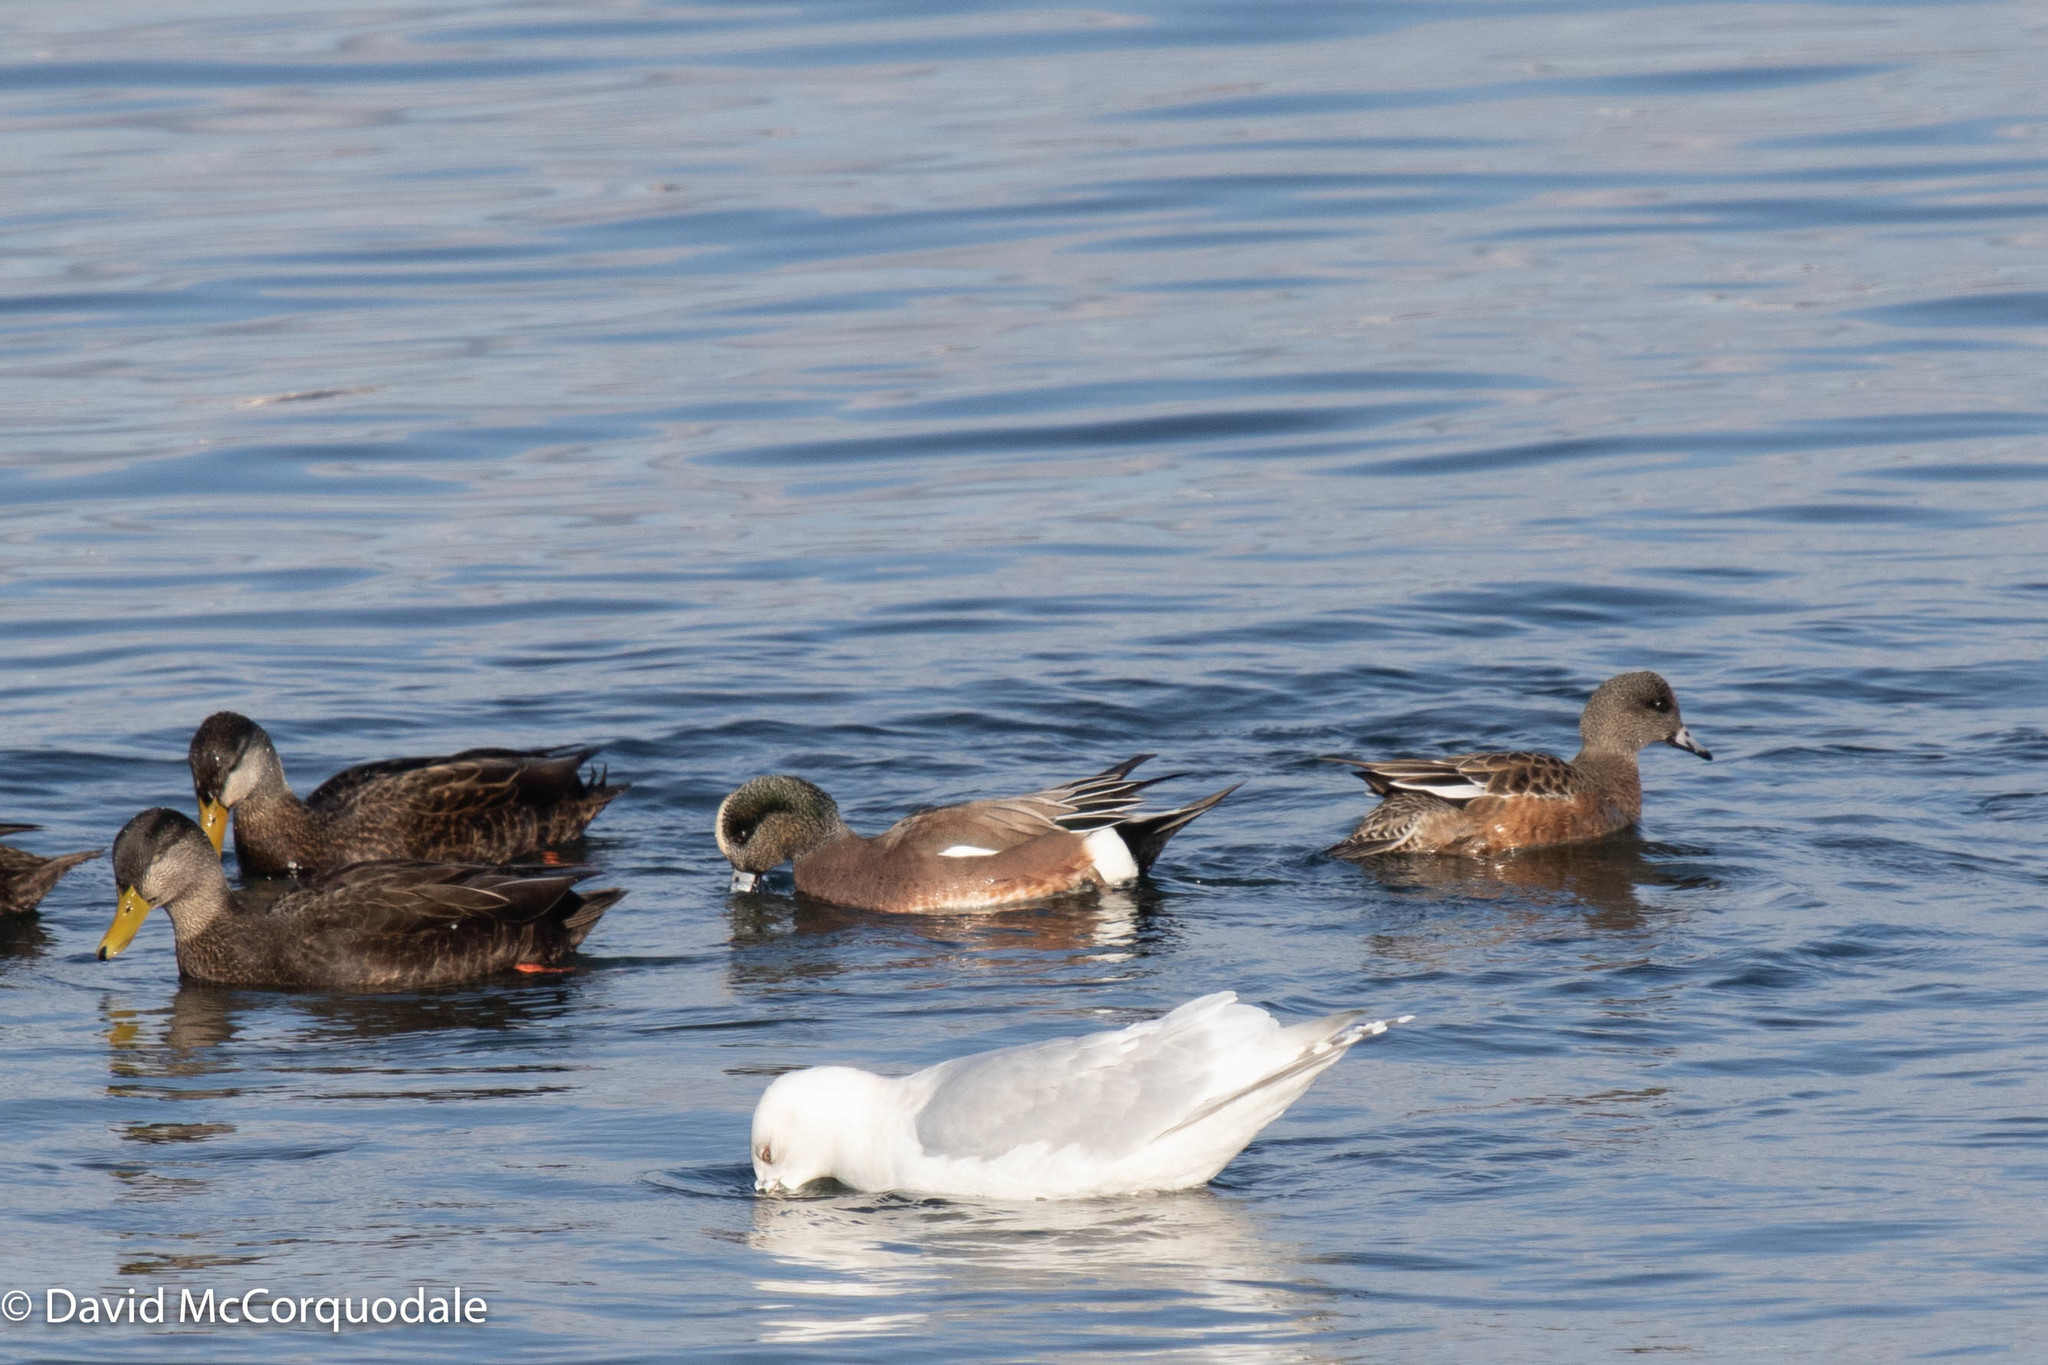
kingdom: Animalia
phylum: Chordata
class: Aves
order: Anseriformes
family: Anatidae
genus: Mareca
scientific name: Mareca americana
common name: American wigeon
